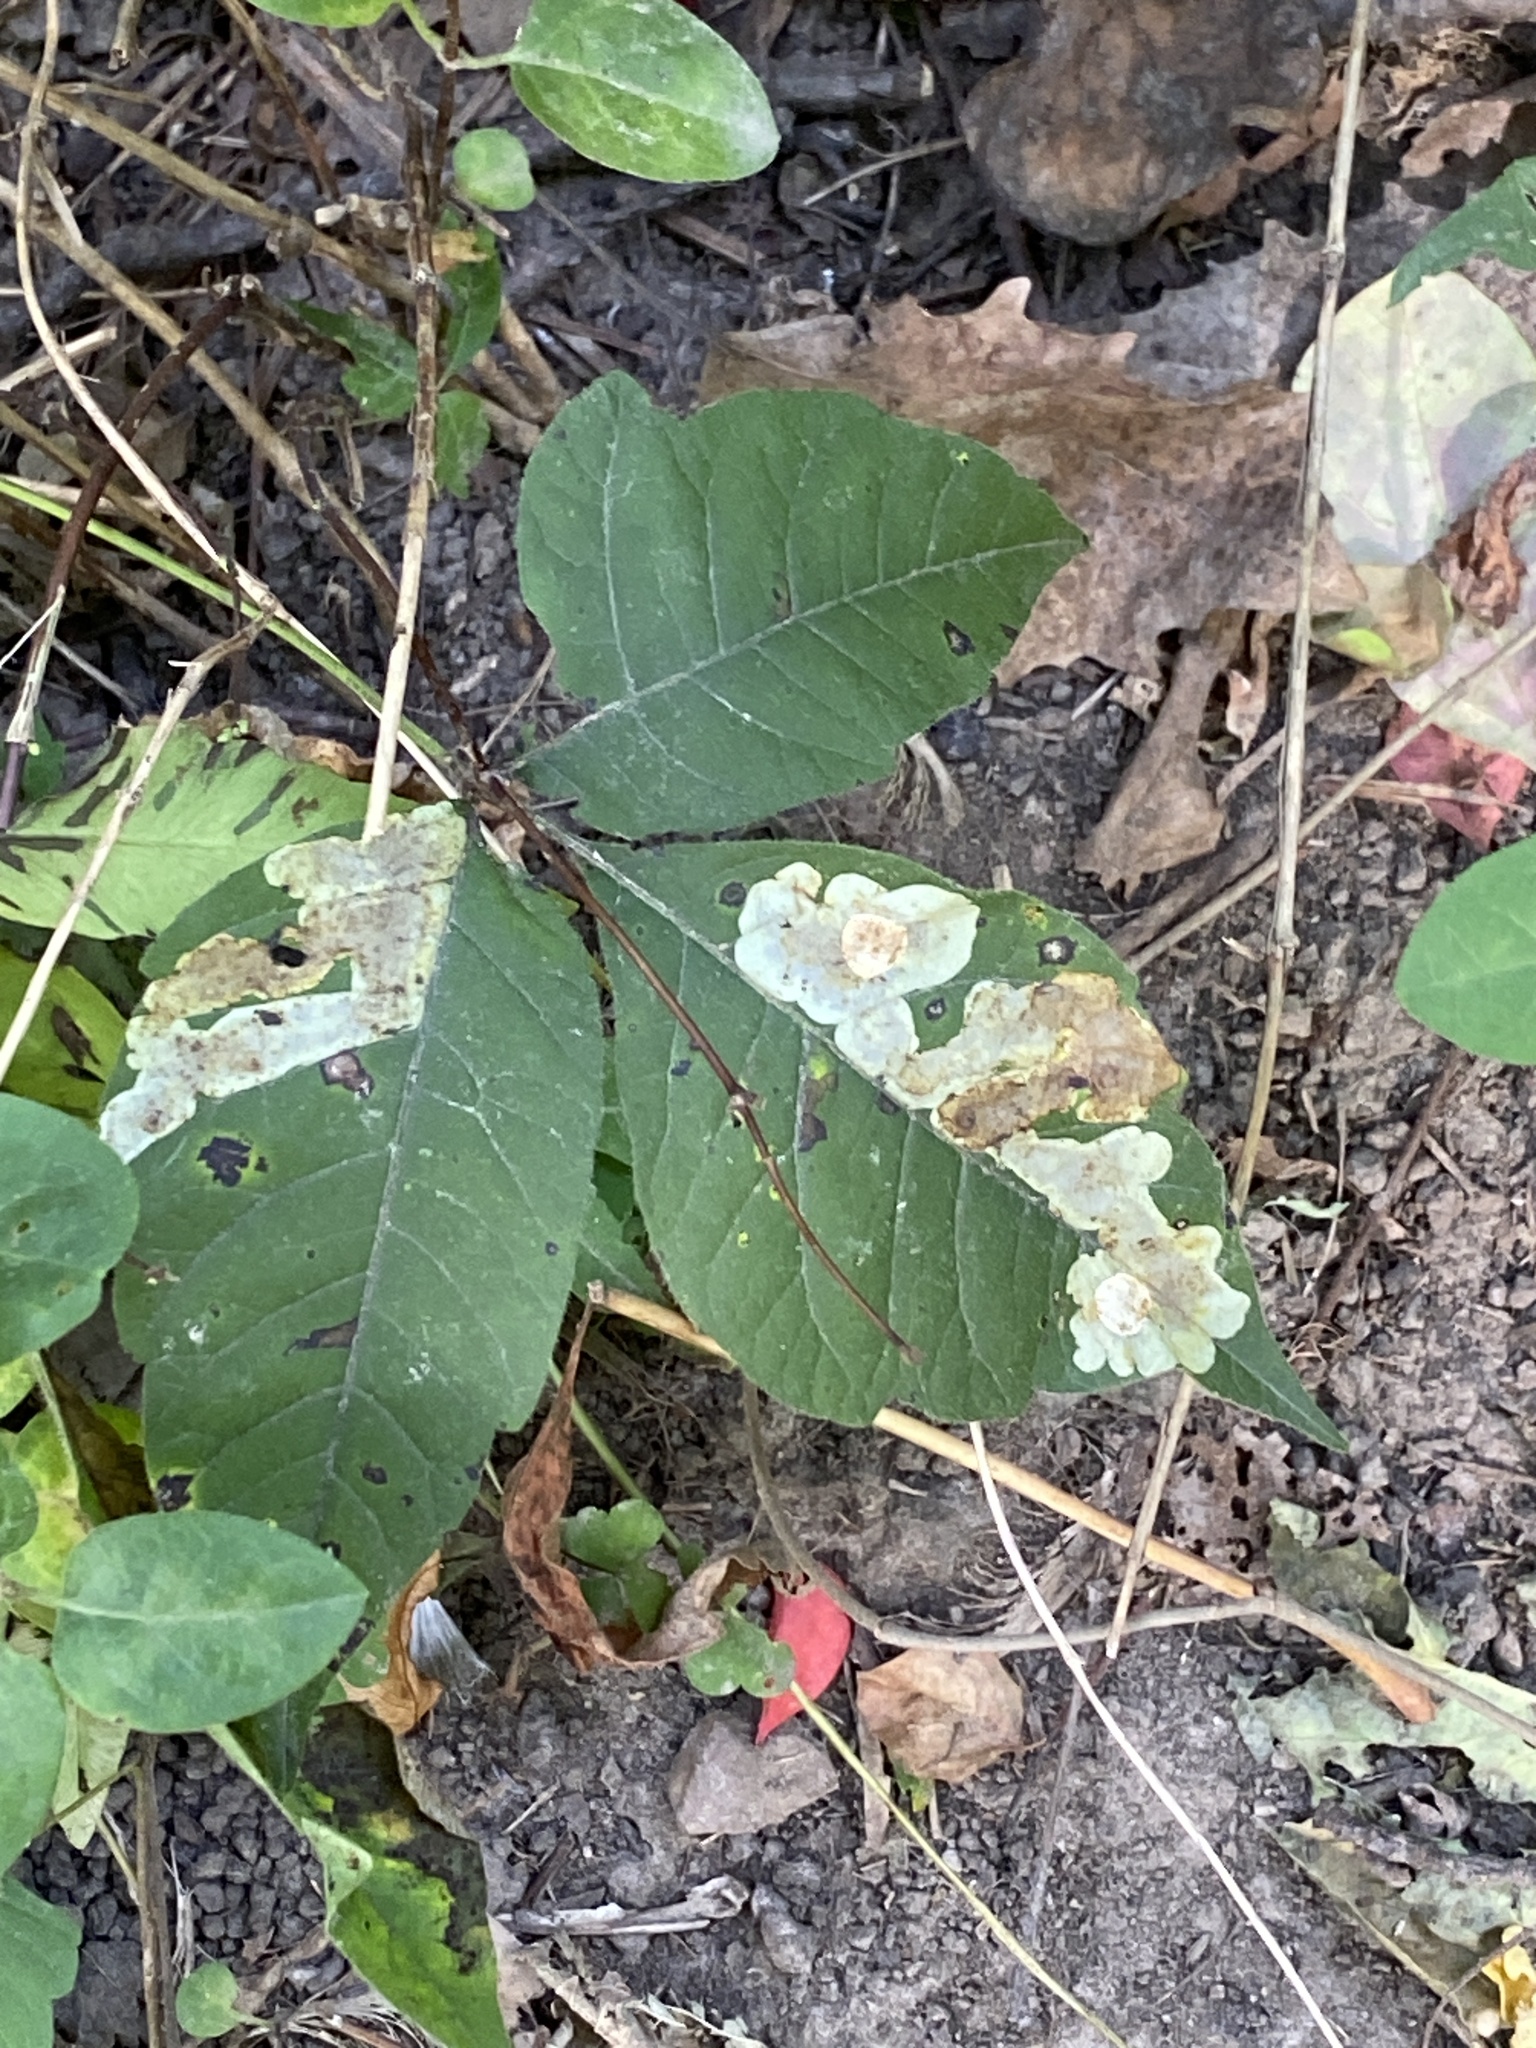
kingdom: Animalia
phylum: Arthropoda
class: Insecta
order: Lepidoptera
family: Gracillariidae
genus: Cameraria
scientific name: Cameraria guttifinitella
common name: Poison ivy leaf-miner moth
